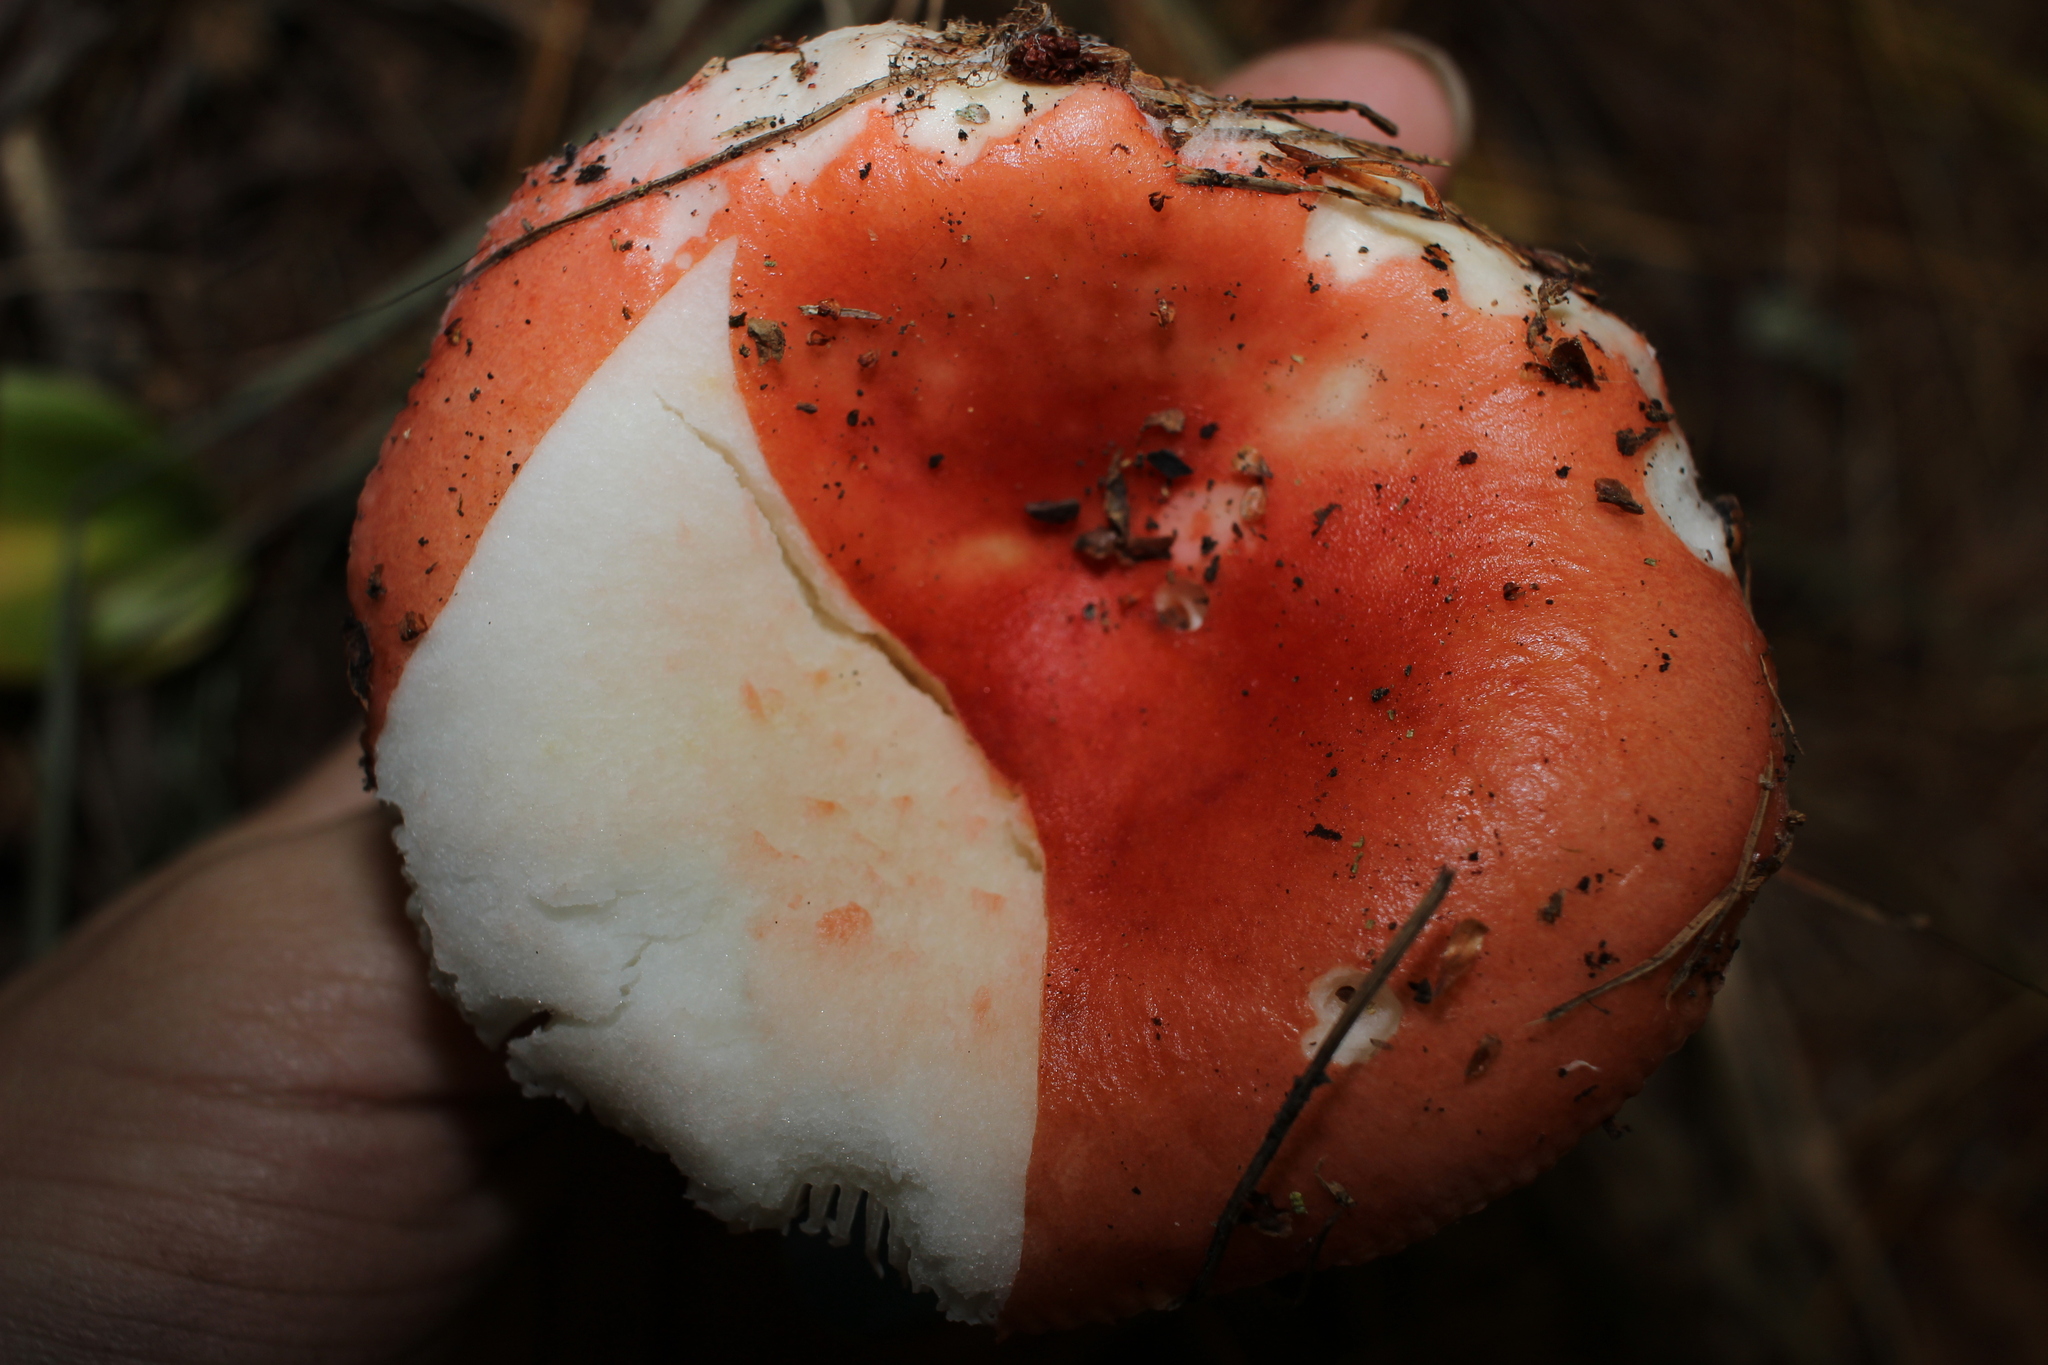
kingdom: Fungi
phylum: Basidiomycota
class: Agaricomycetes
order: Russulales
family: Russulaceae
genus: Russula
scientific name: Russula
